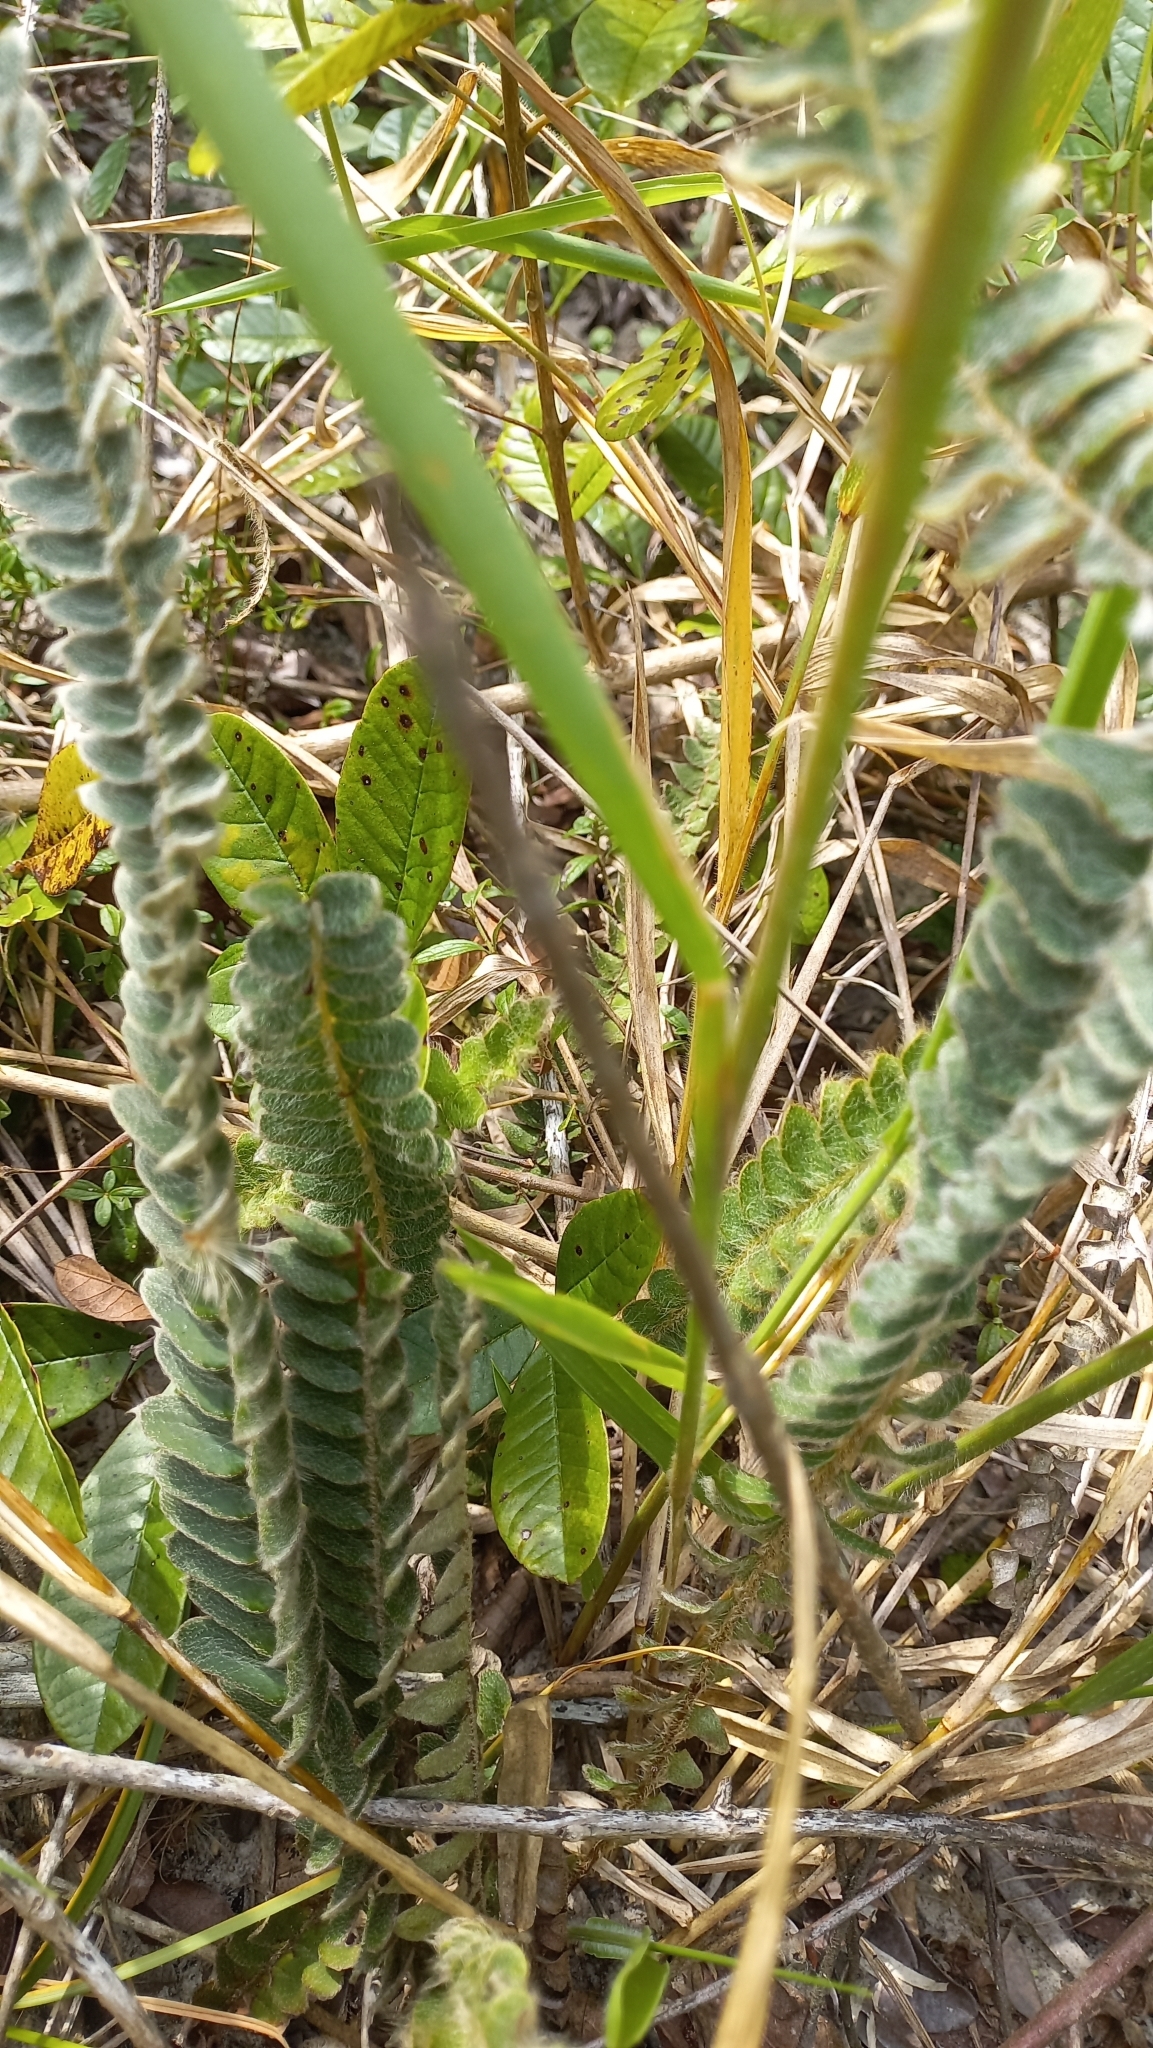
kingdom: Plantae
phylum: Tracheophyta
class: Polypodiopsida
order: Polypodiales
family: Polypodiaceae
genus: Pleopeltis
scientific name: Pleopeltis lepidopteris
